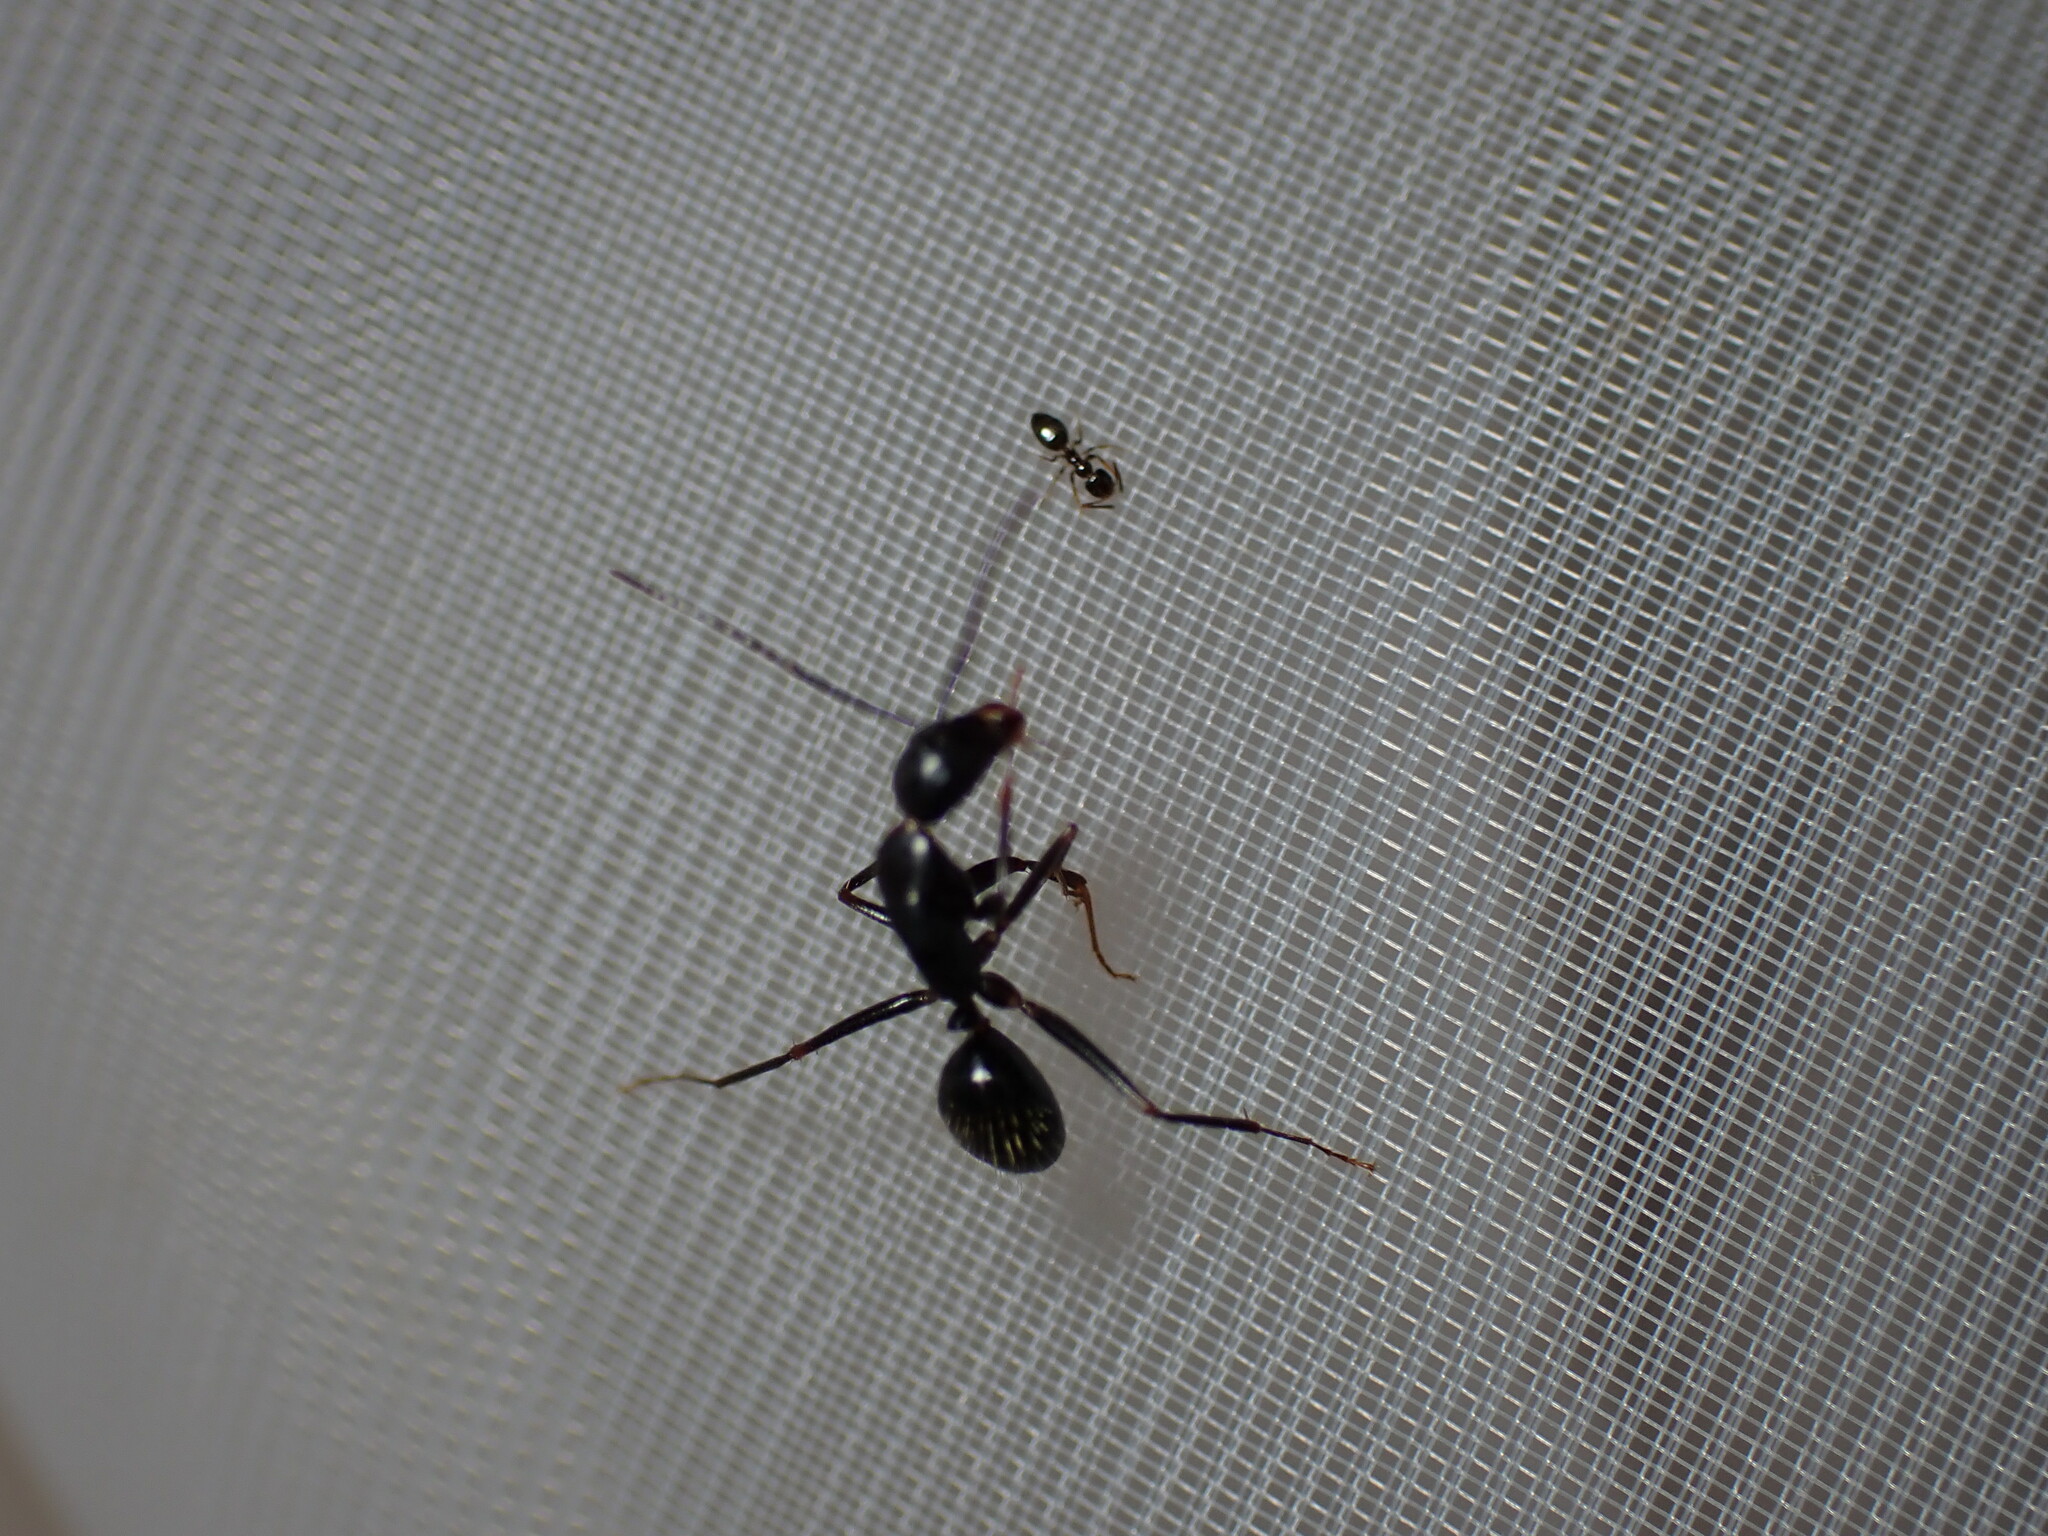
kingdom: Animalia
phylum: Arthropoda
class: Insecta
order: Hymenoptera
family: Formicidae
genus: Camponotus
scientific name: Camponotus aethiops
